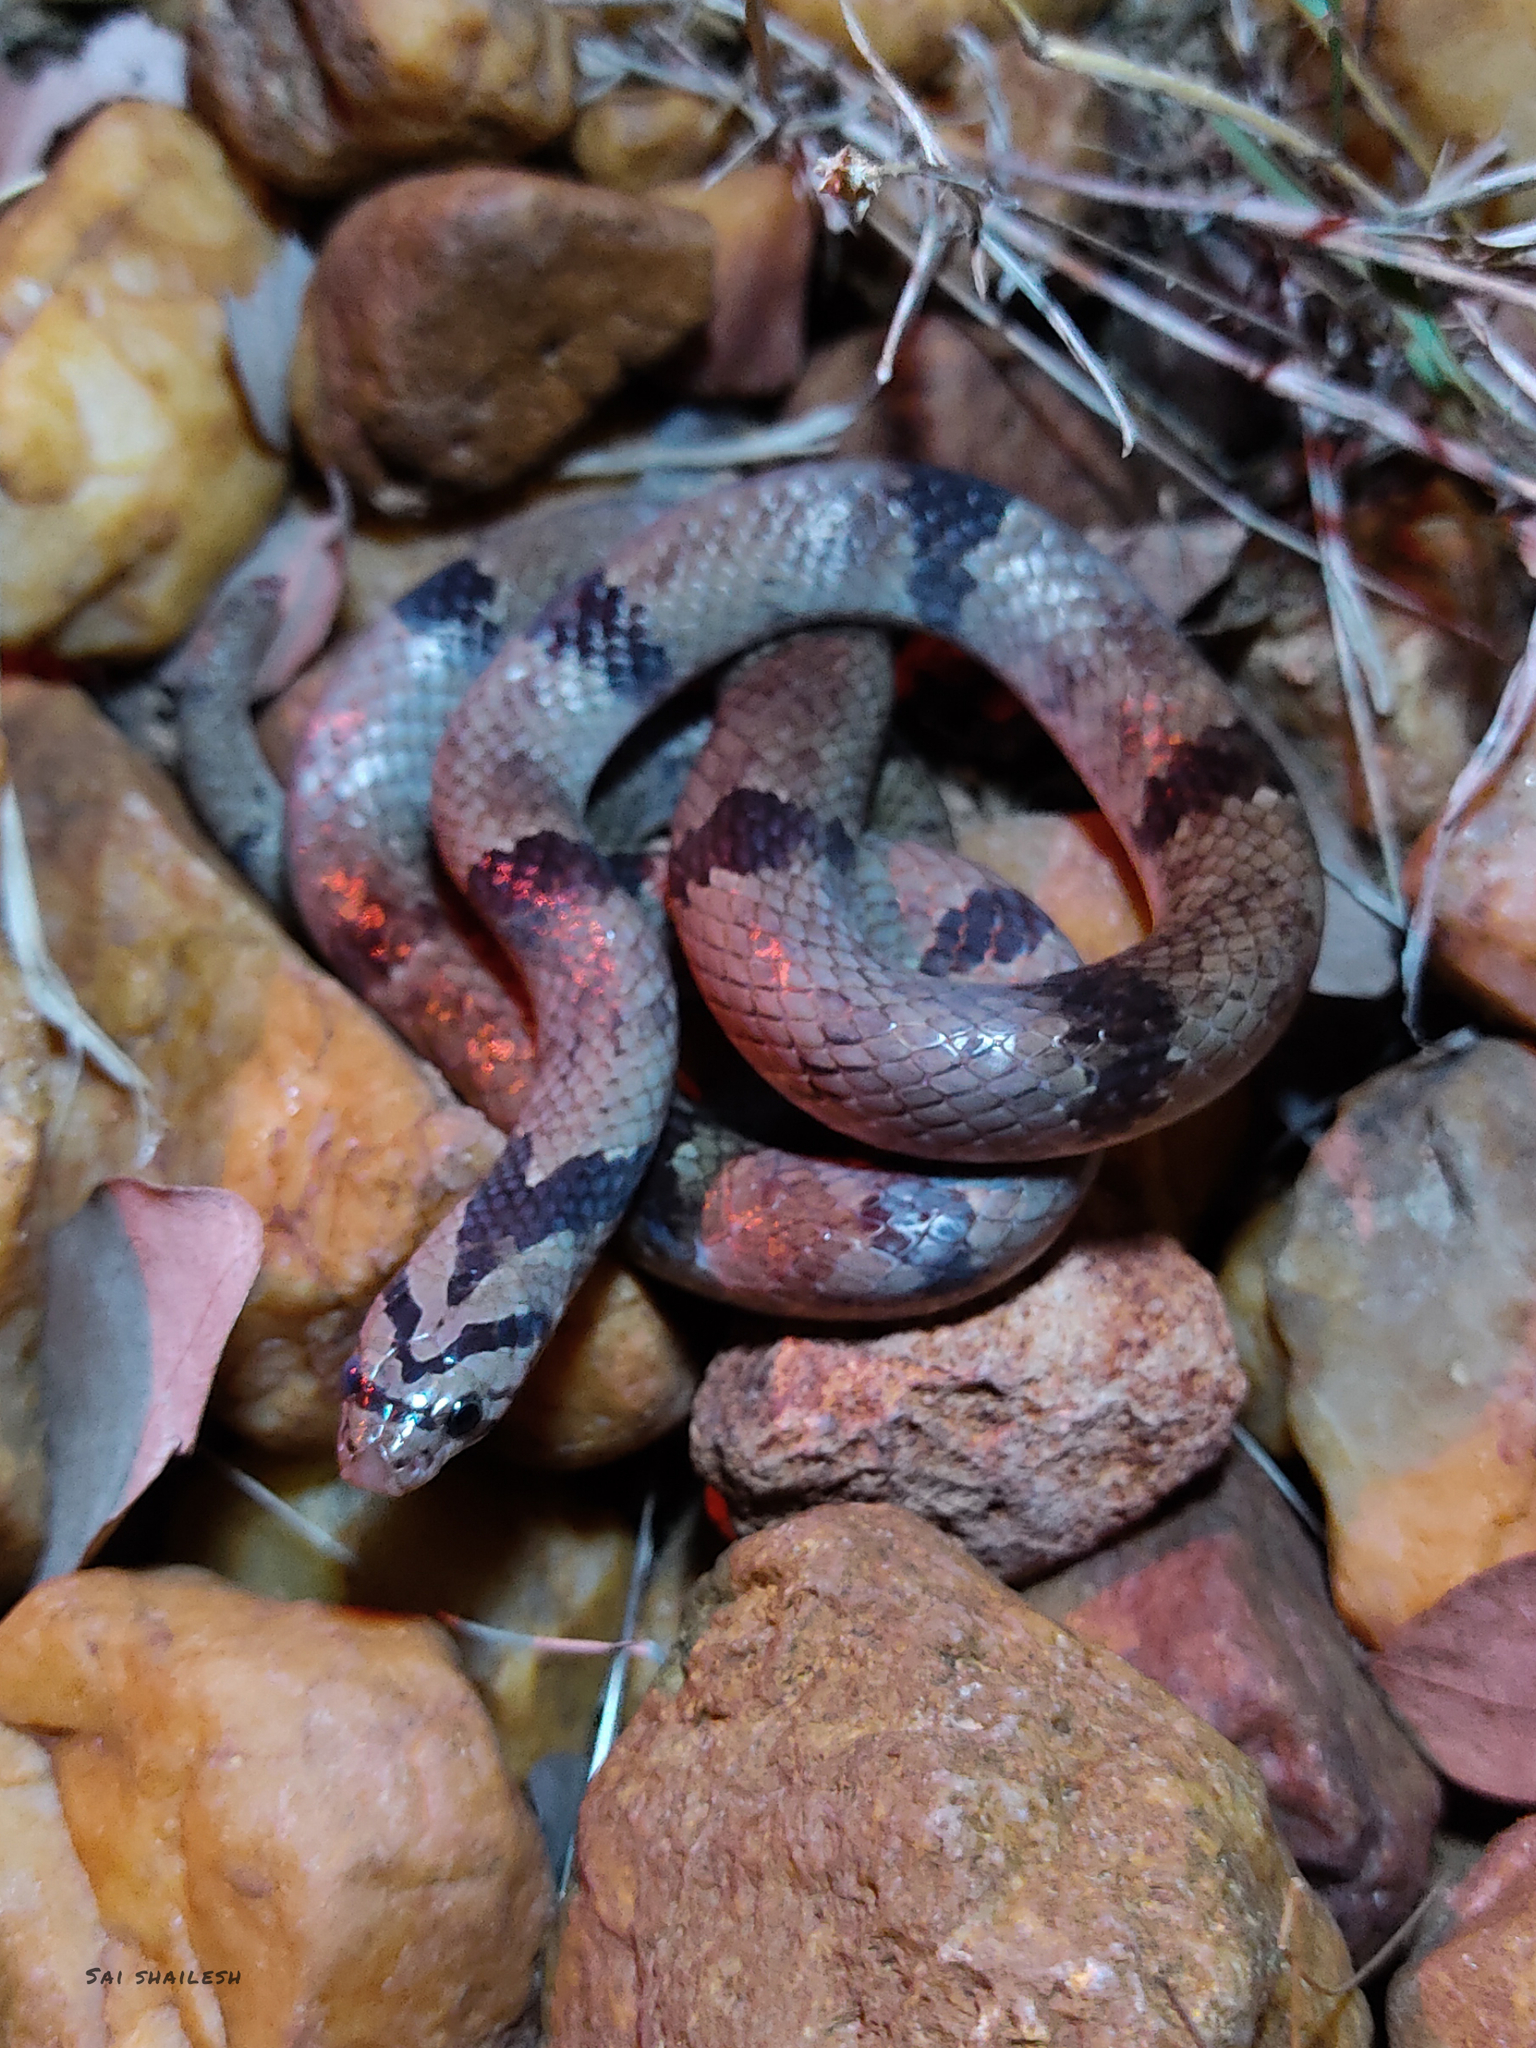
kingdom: Animalia
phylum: Chordata
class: Squamata
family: Colubridae
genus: Oligodon
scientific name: Oligodon arnensis
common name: Banded kukri
